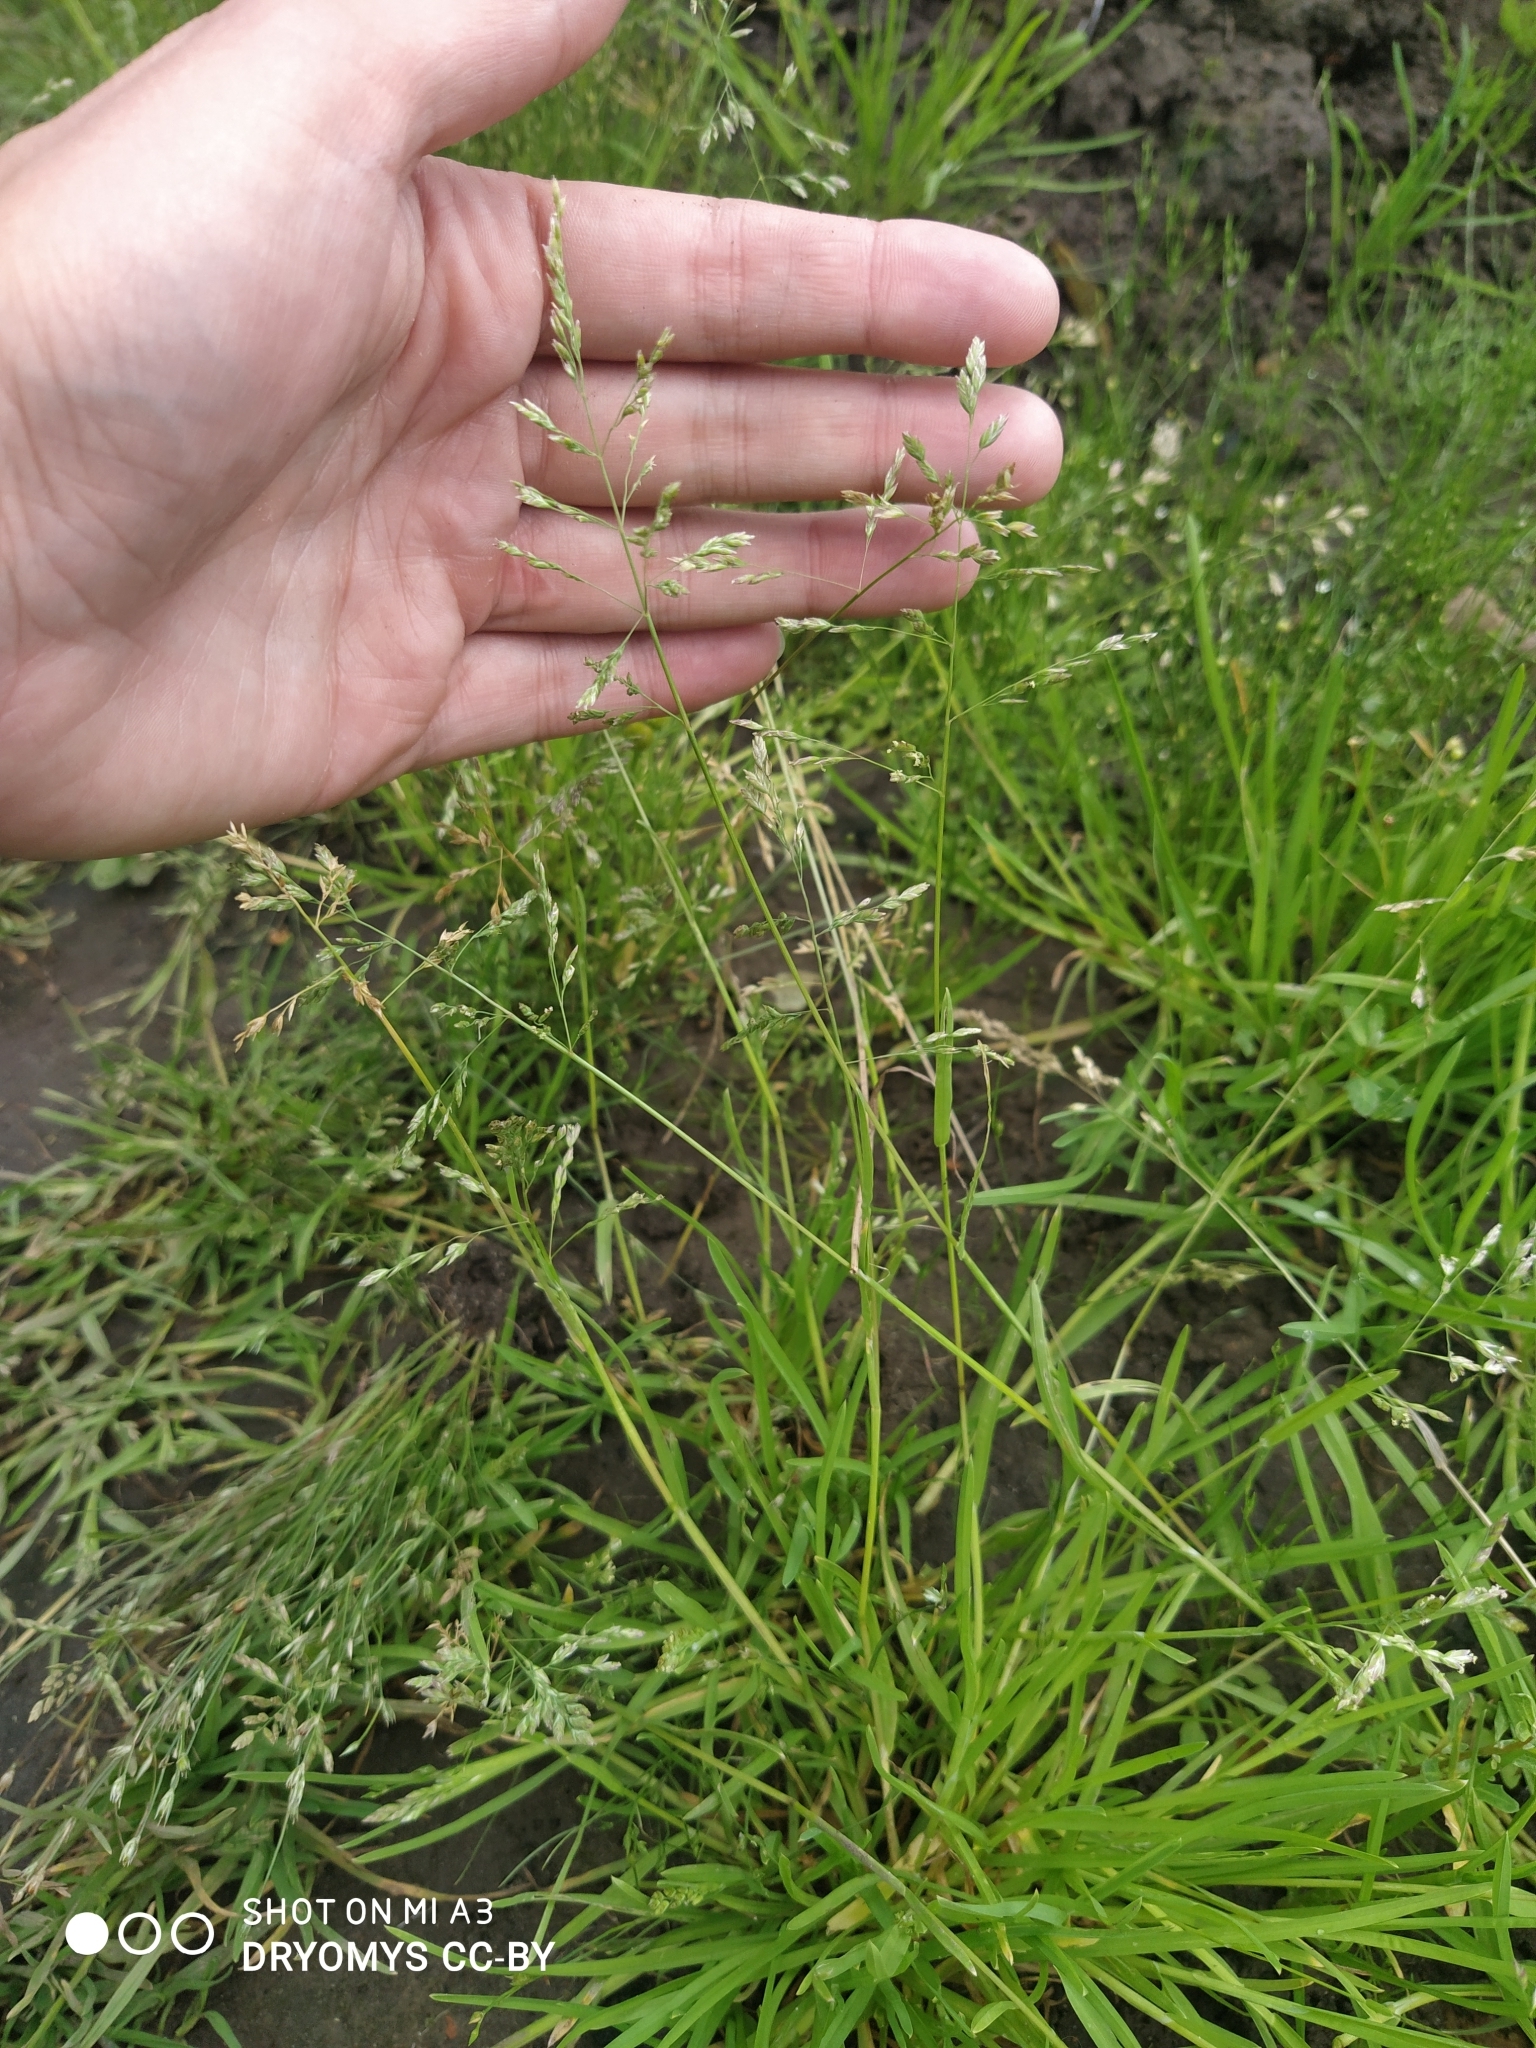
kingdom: Plantae
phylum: Tracheophyta
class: Liliopsida
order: Poales
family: Poaceae
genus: Poa
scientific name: Poa annua
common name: Annual bluegrass
